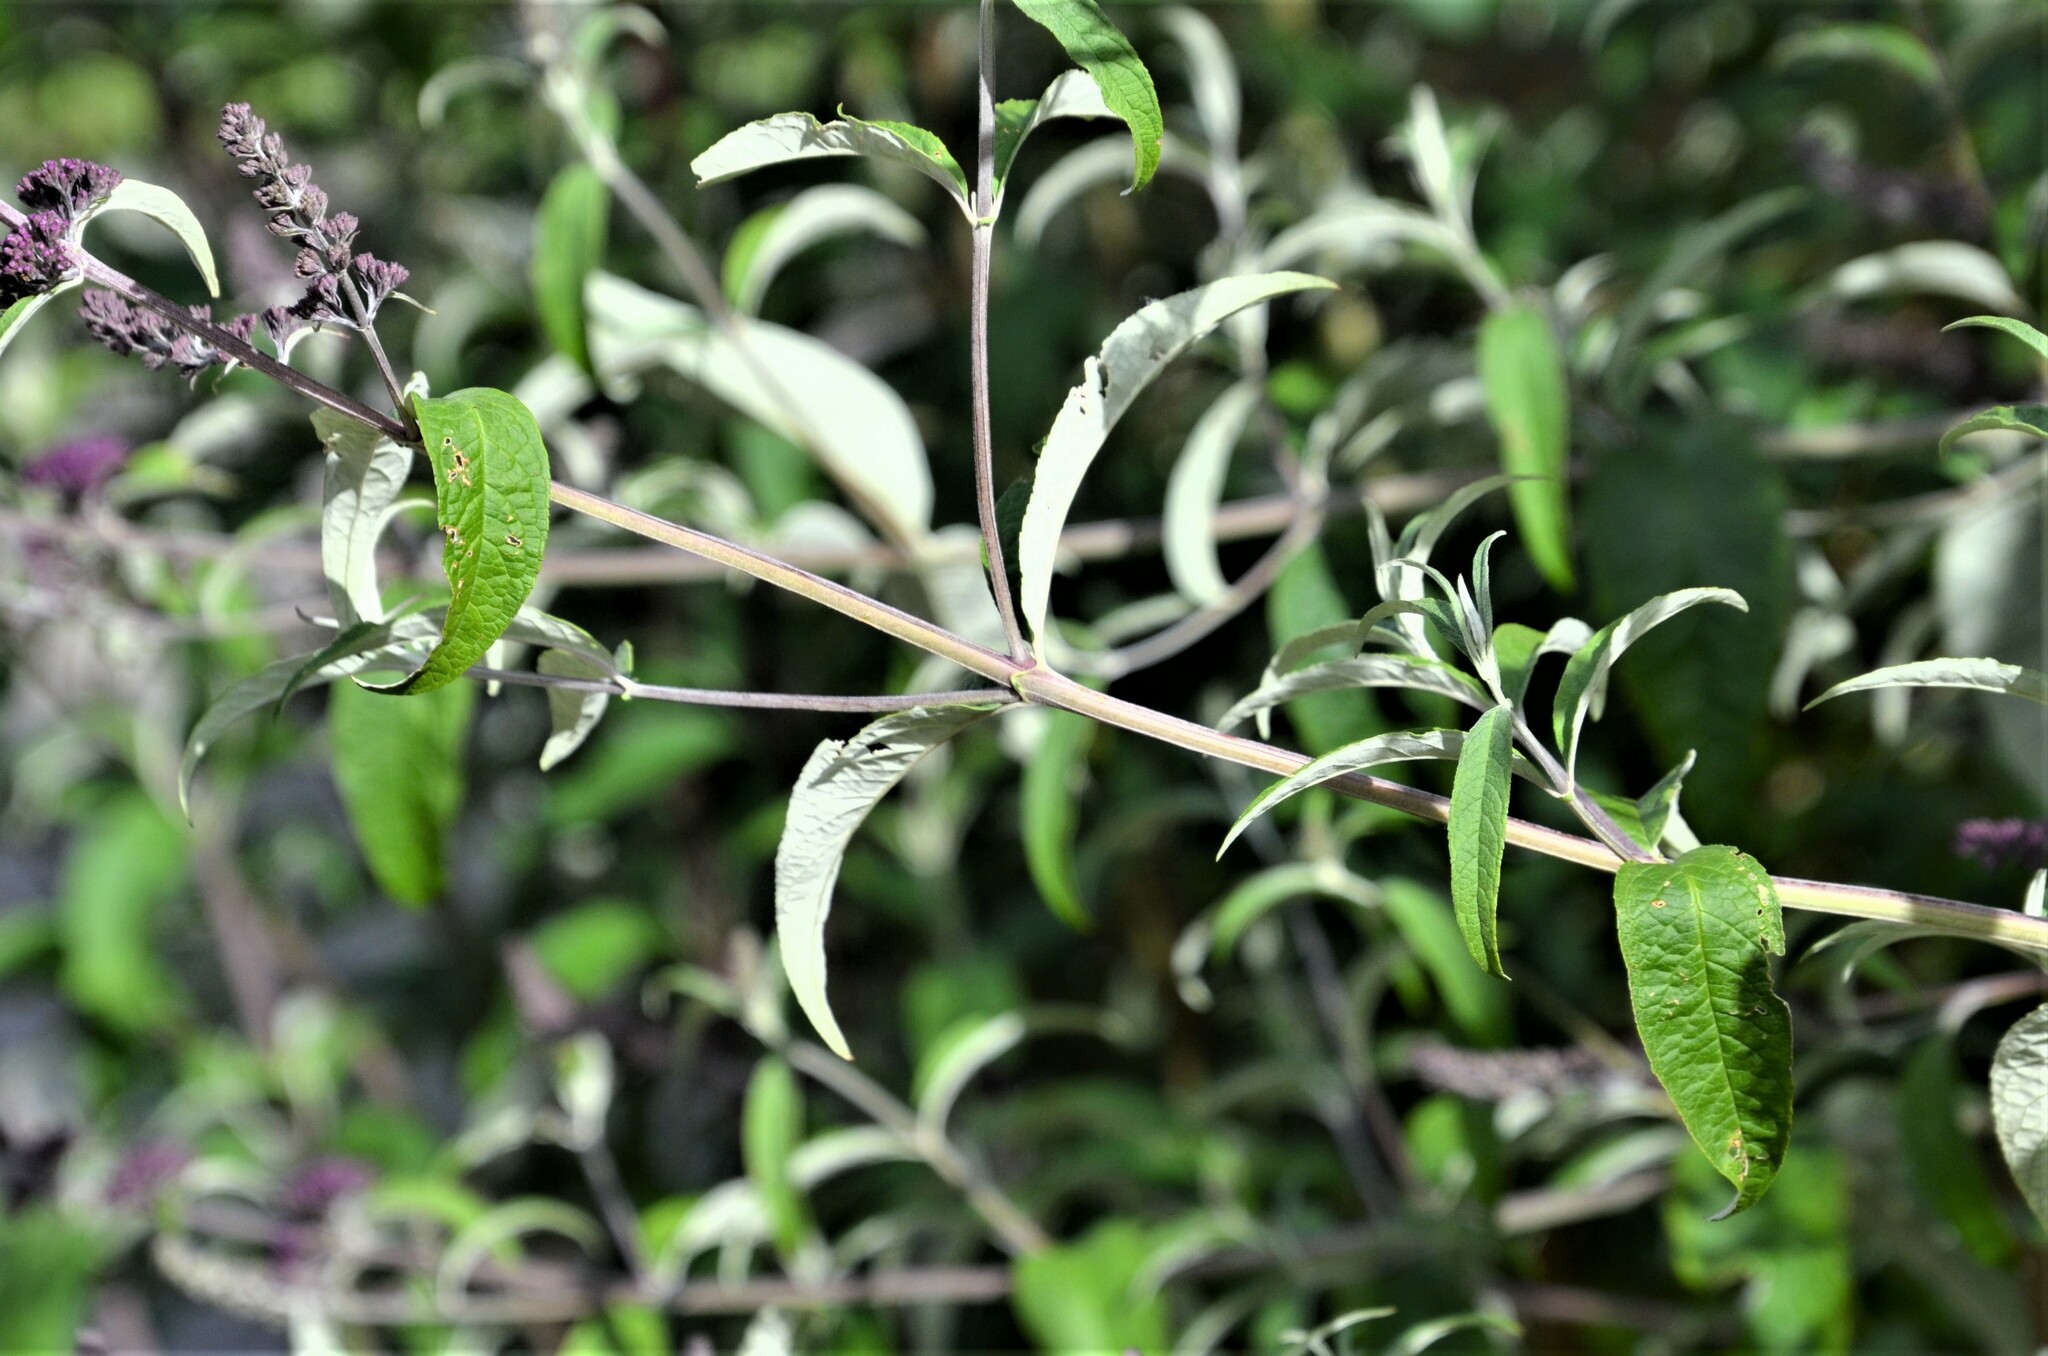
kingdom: Plantae
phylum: Tracheophyta
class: Magnoliopsida
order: Lamiales
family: Scrophulariaceae
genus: Buddleja
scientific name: Buddleja davidii
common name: Butterfly-bush
